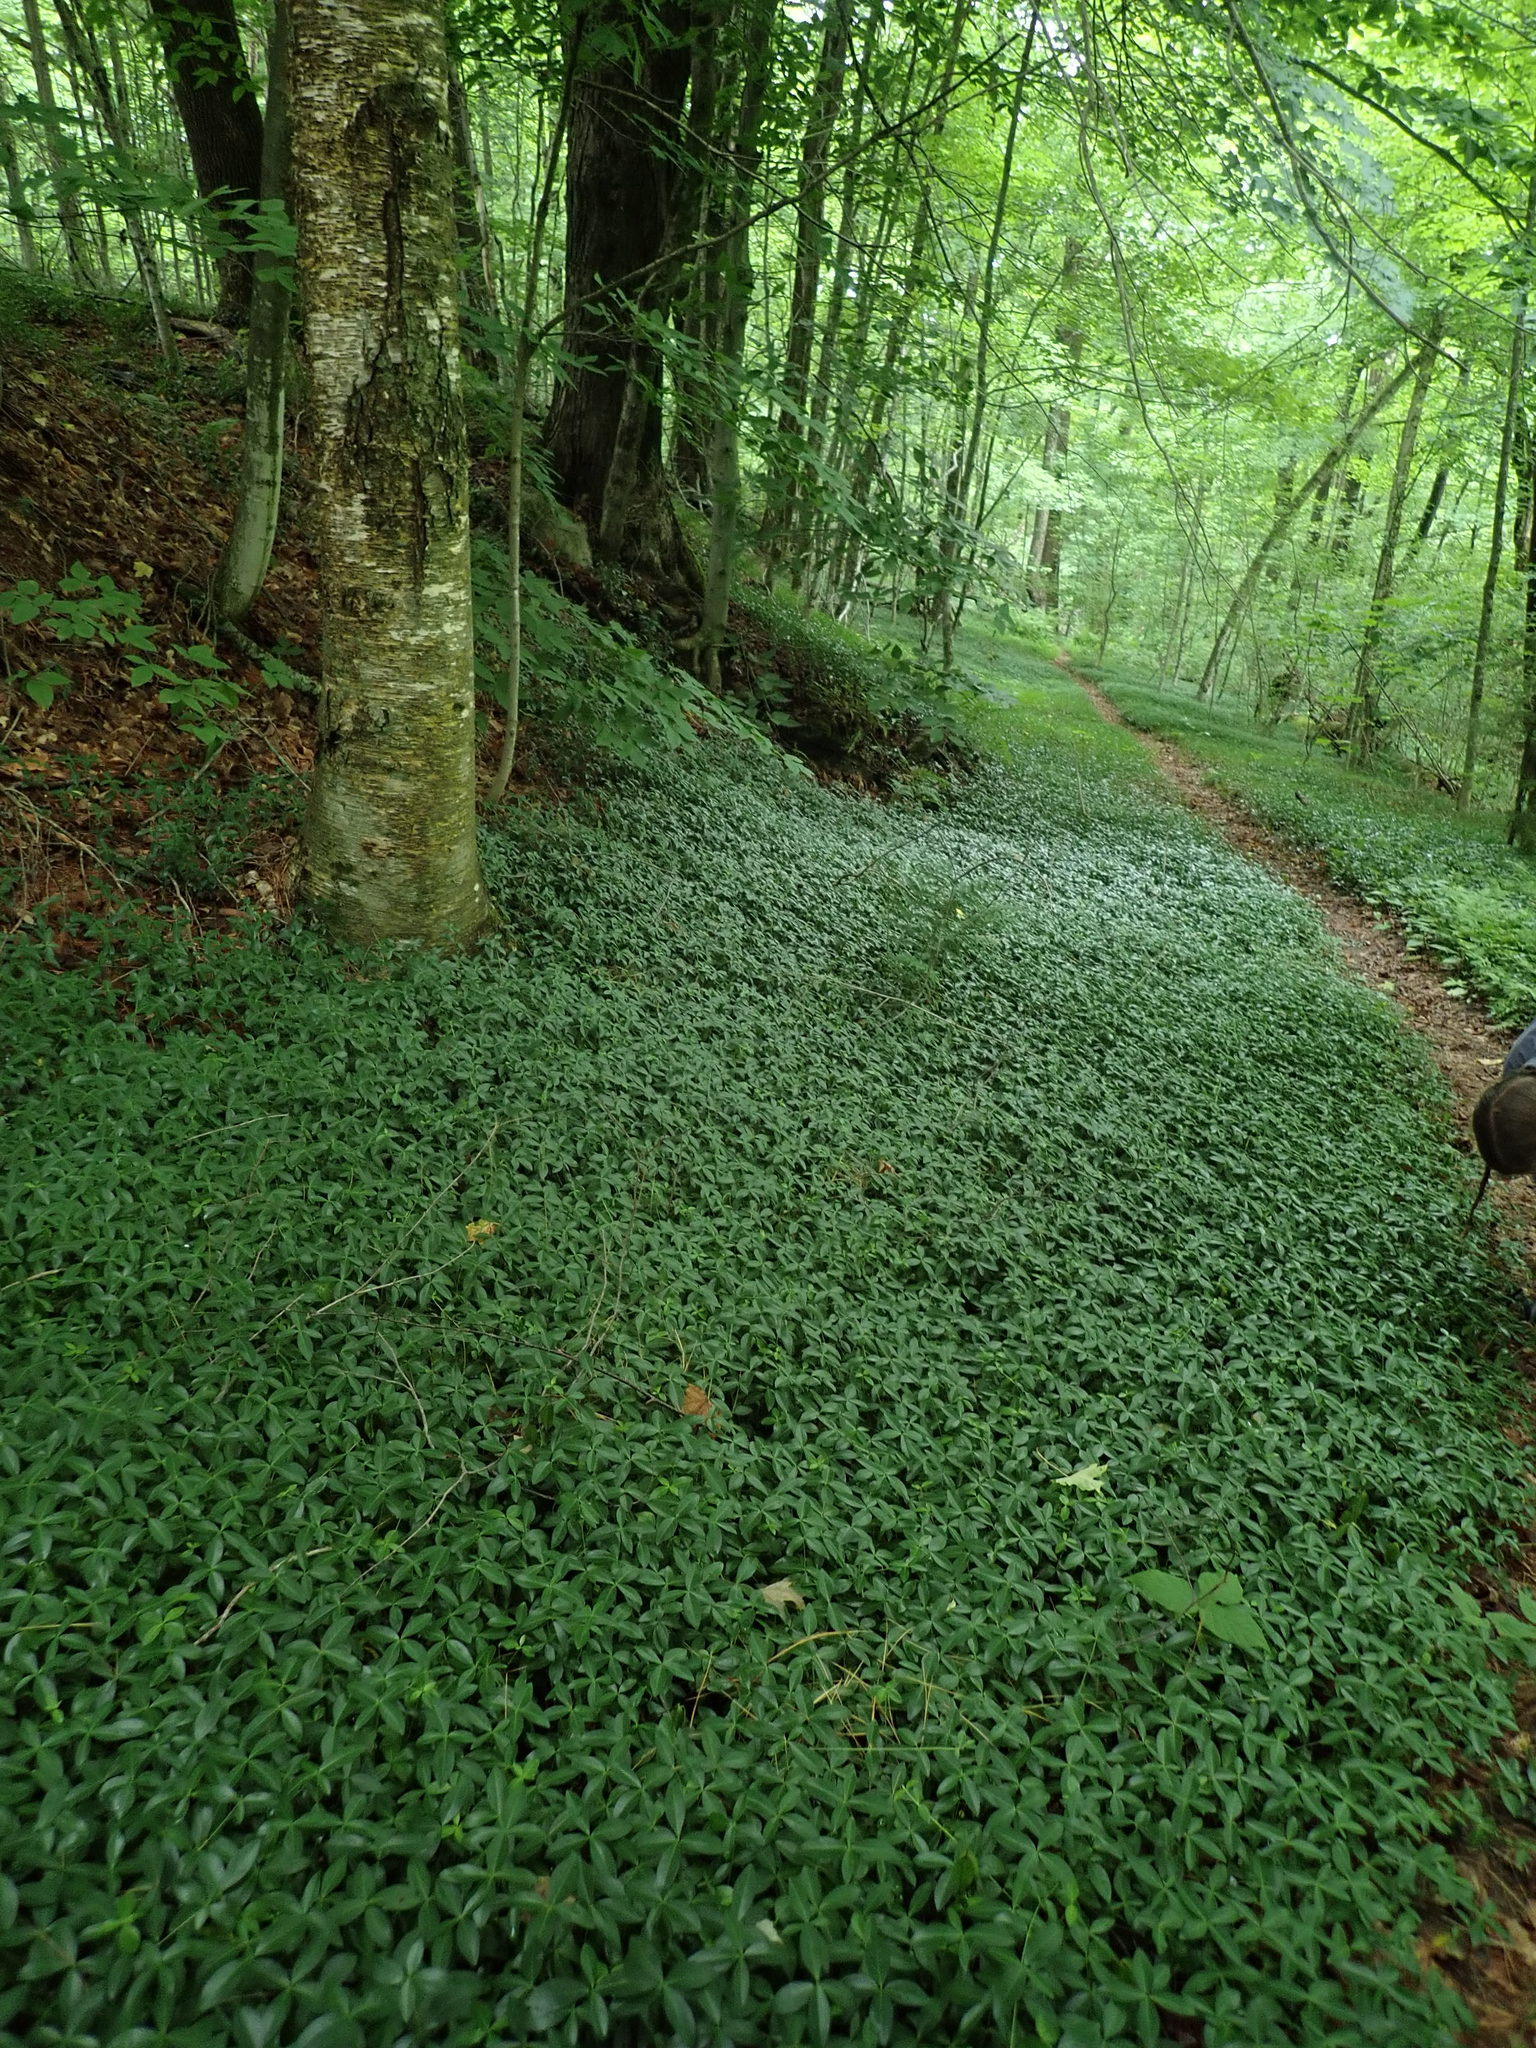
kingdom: Plantae
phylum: Tracheophyta
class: Magnoliopsida
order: Gentianales
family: Apocynaceae
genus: Vinca
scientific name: Vinca minor
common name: Lesser periwinkle
